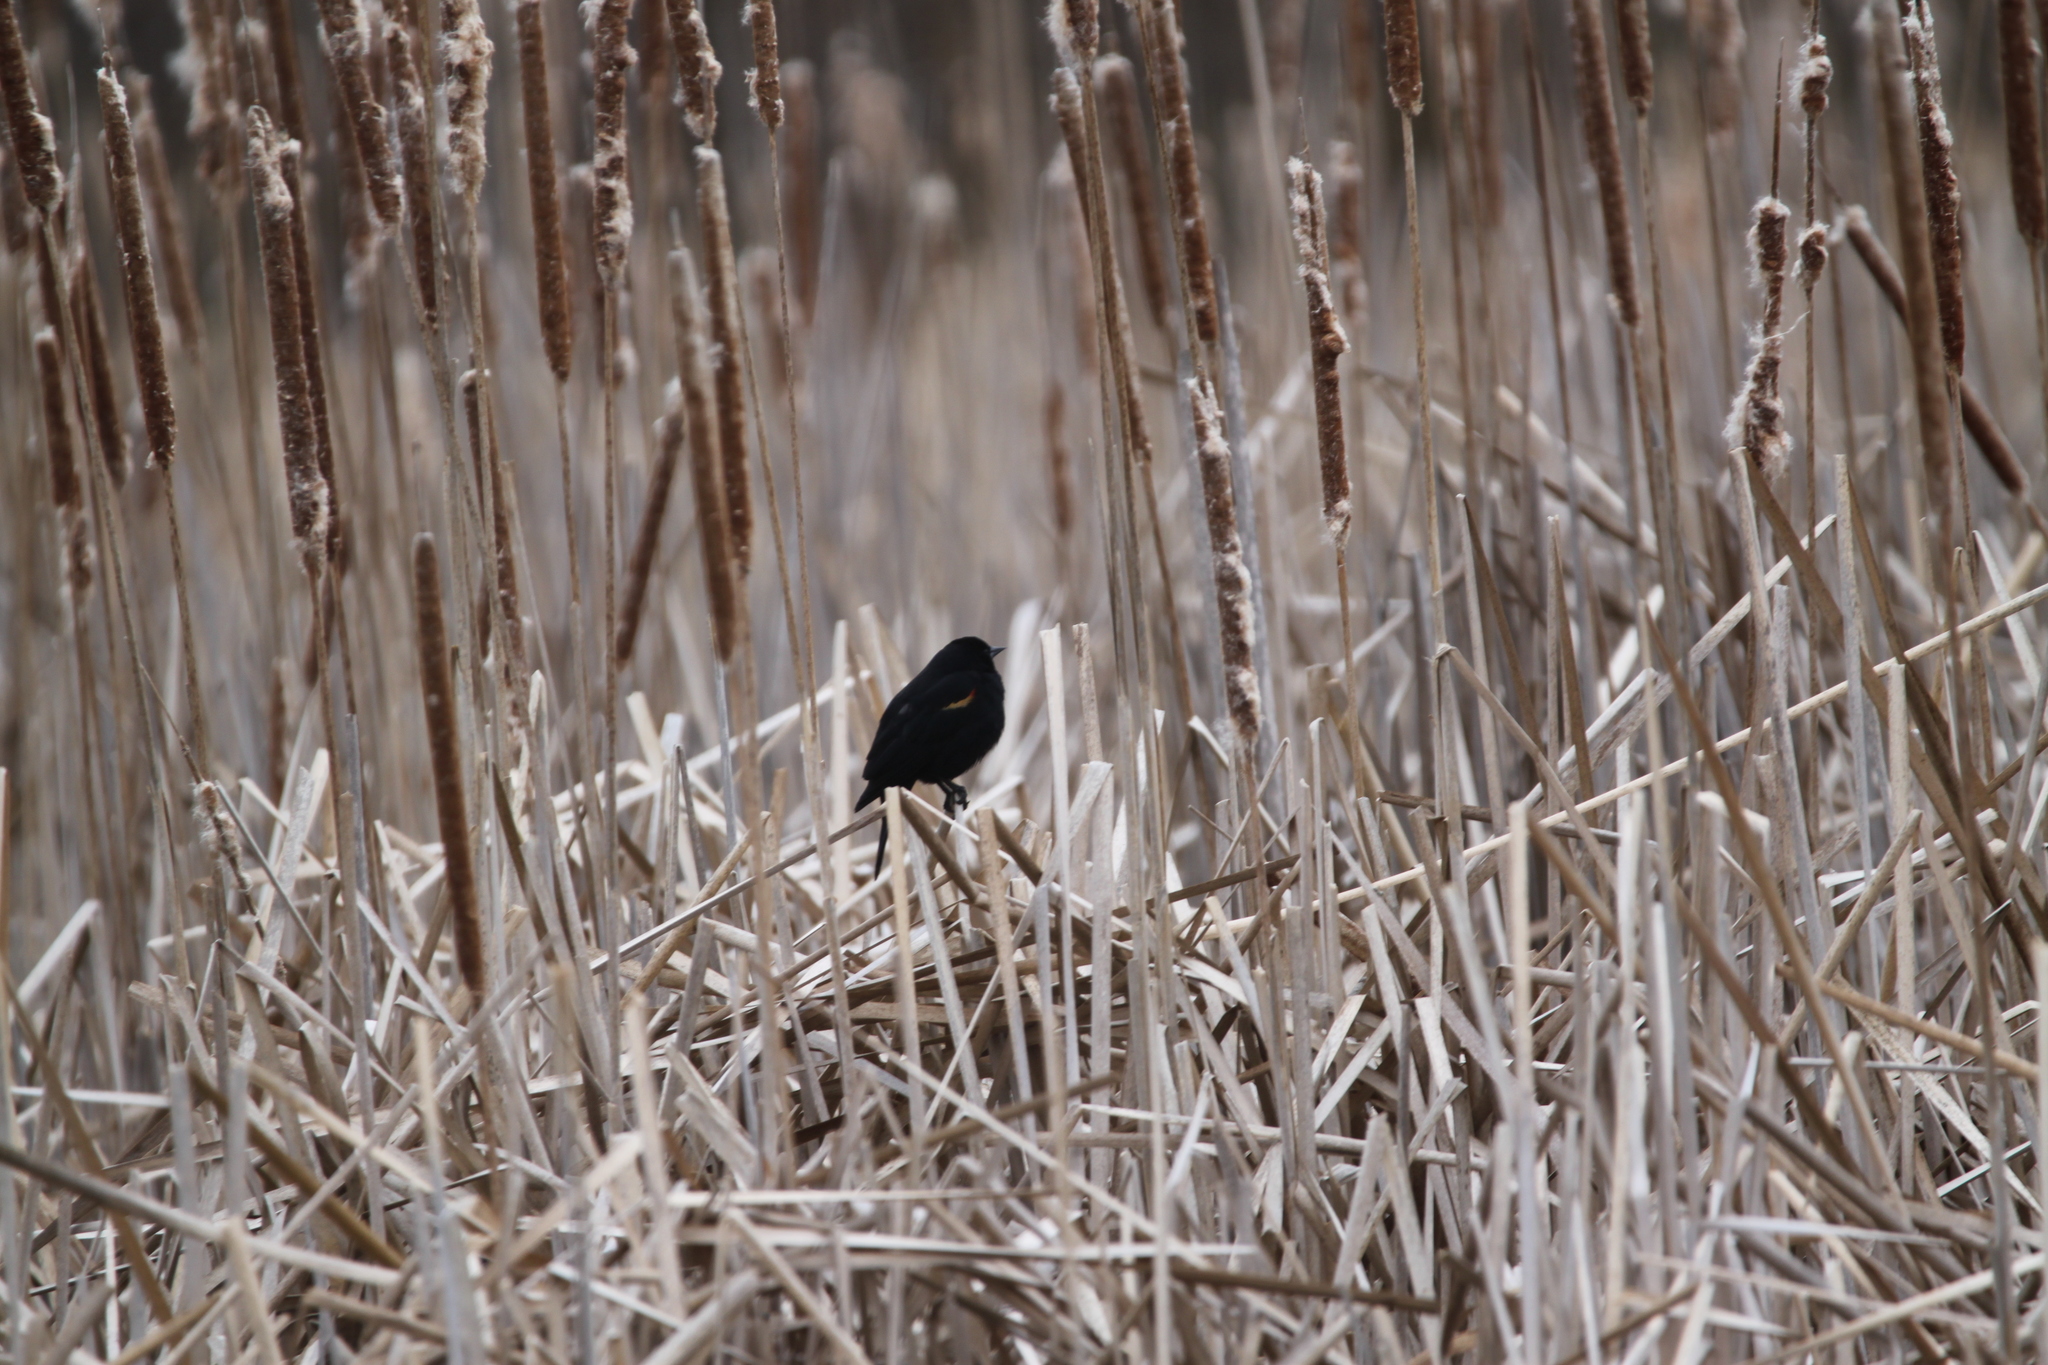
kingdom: Animalia
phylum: Chordata
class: Aves
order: Passeriformes
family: Icteridae
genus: Agelaius
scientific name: Agelaius phoeniceus
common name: Red-winged blackbird
